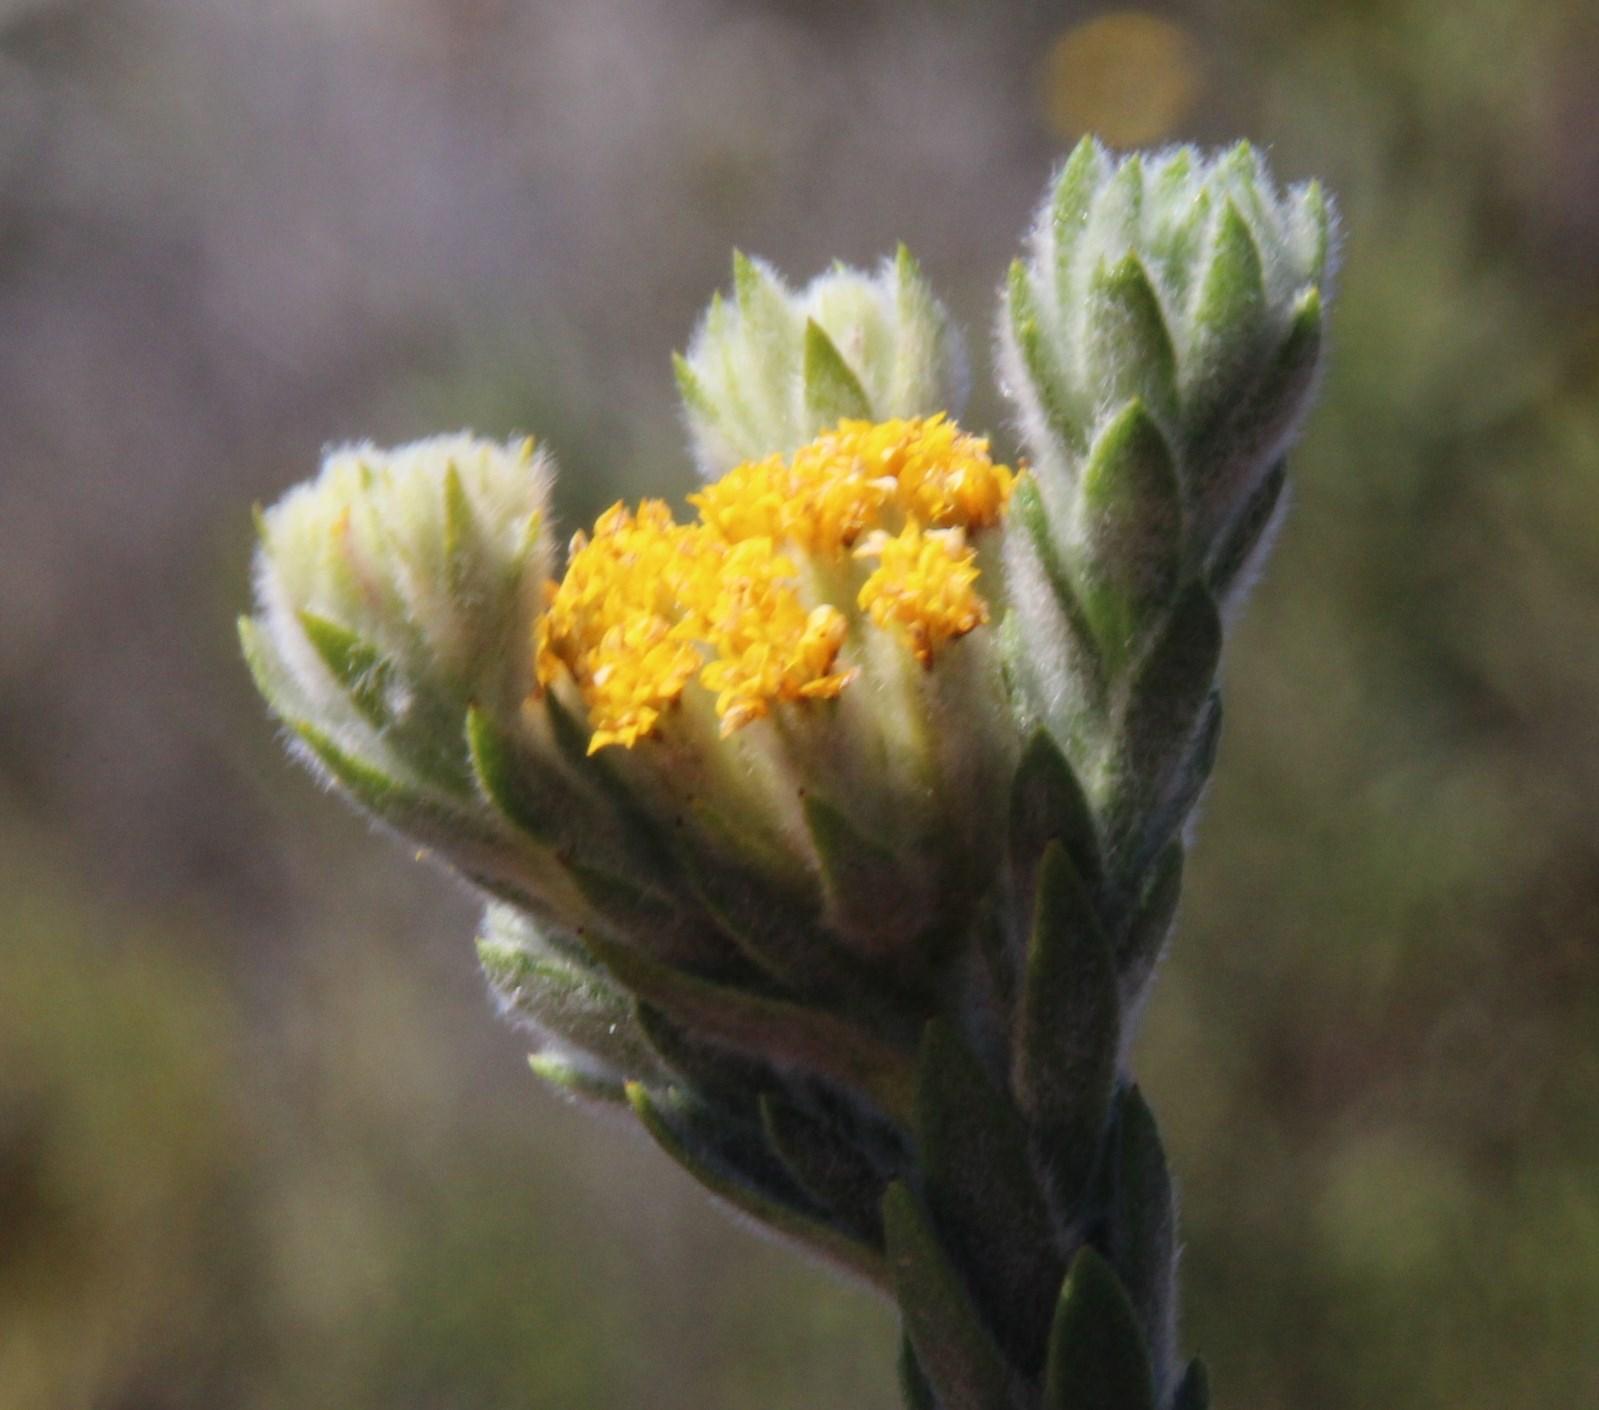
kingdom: Plantae
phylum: Tracheophyta
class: Magnoliopsida
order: Asterales
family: Asteraceae
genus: Hymenolepis
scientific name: Hymenolepis gnidioides
